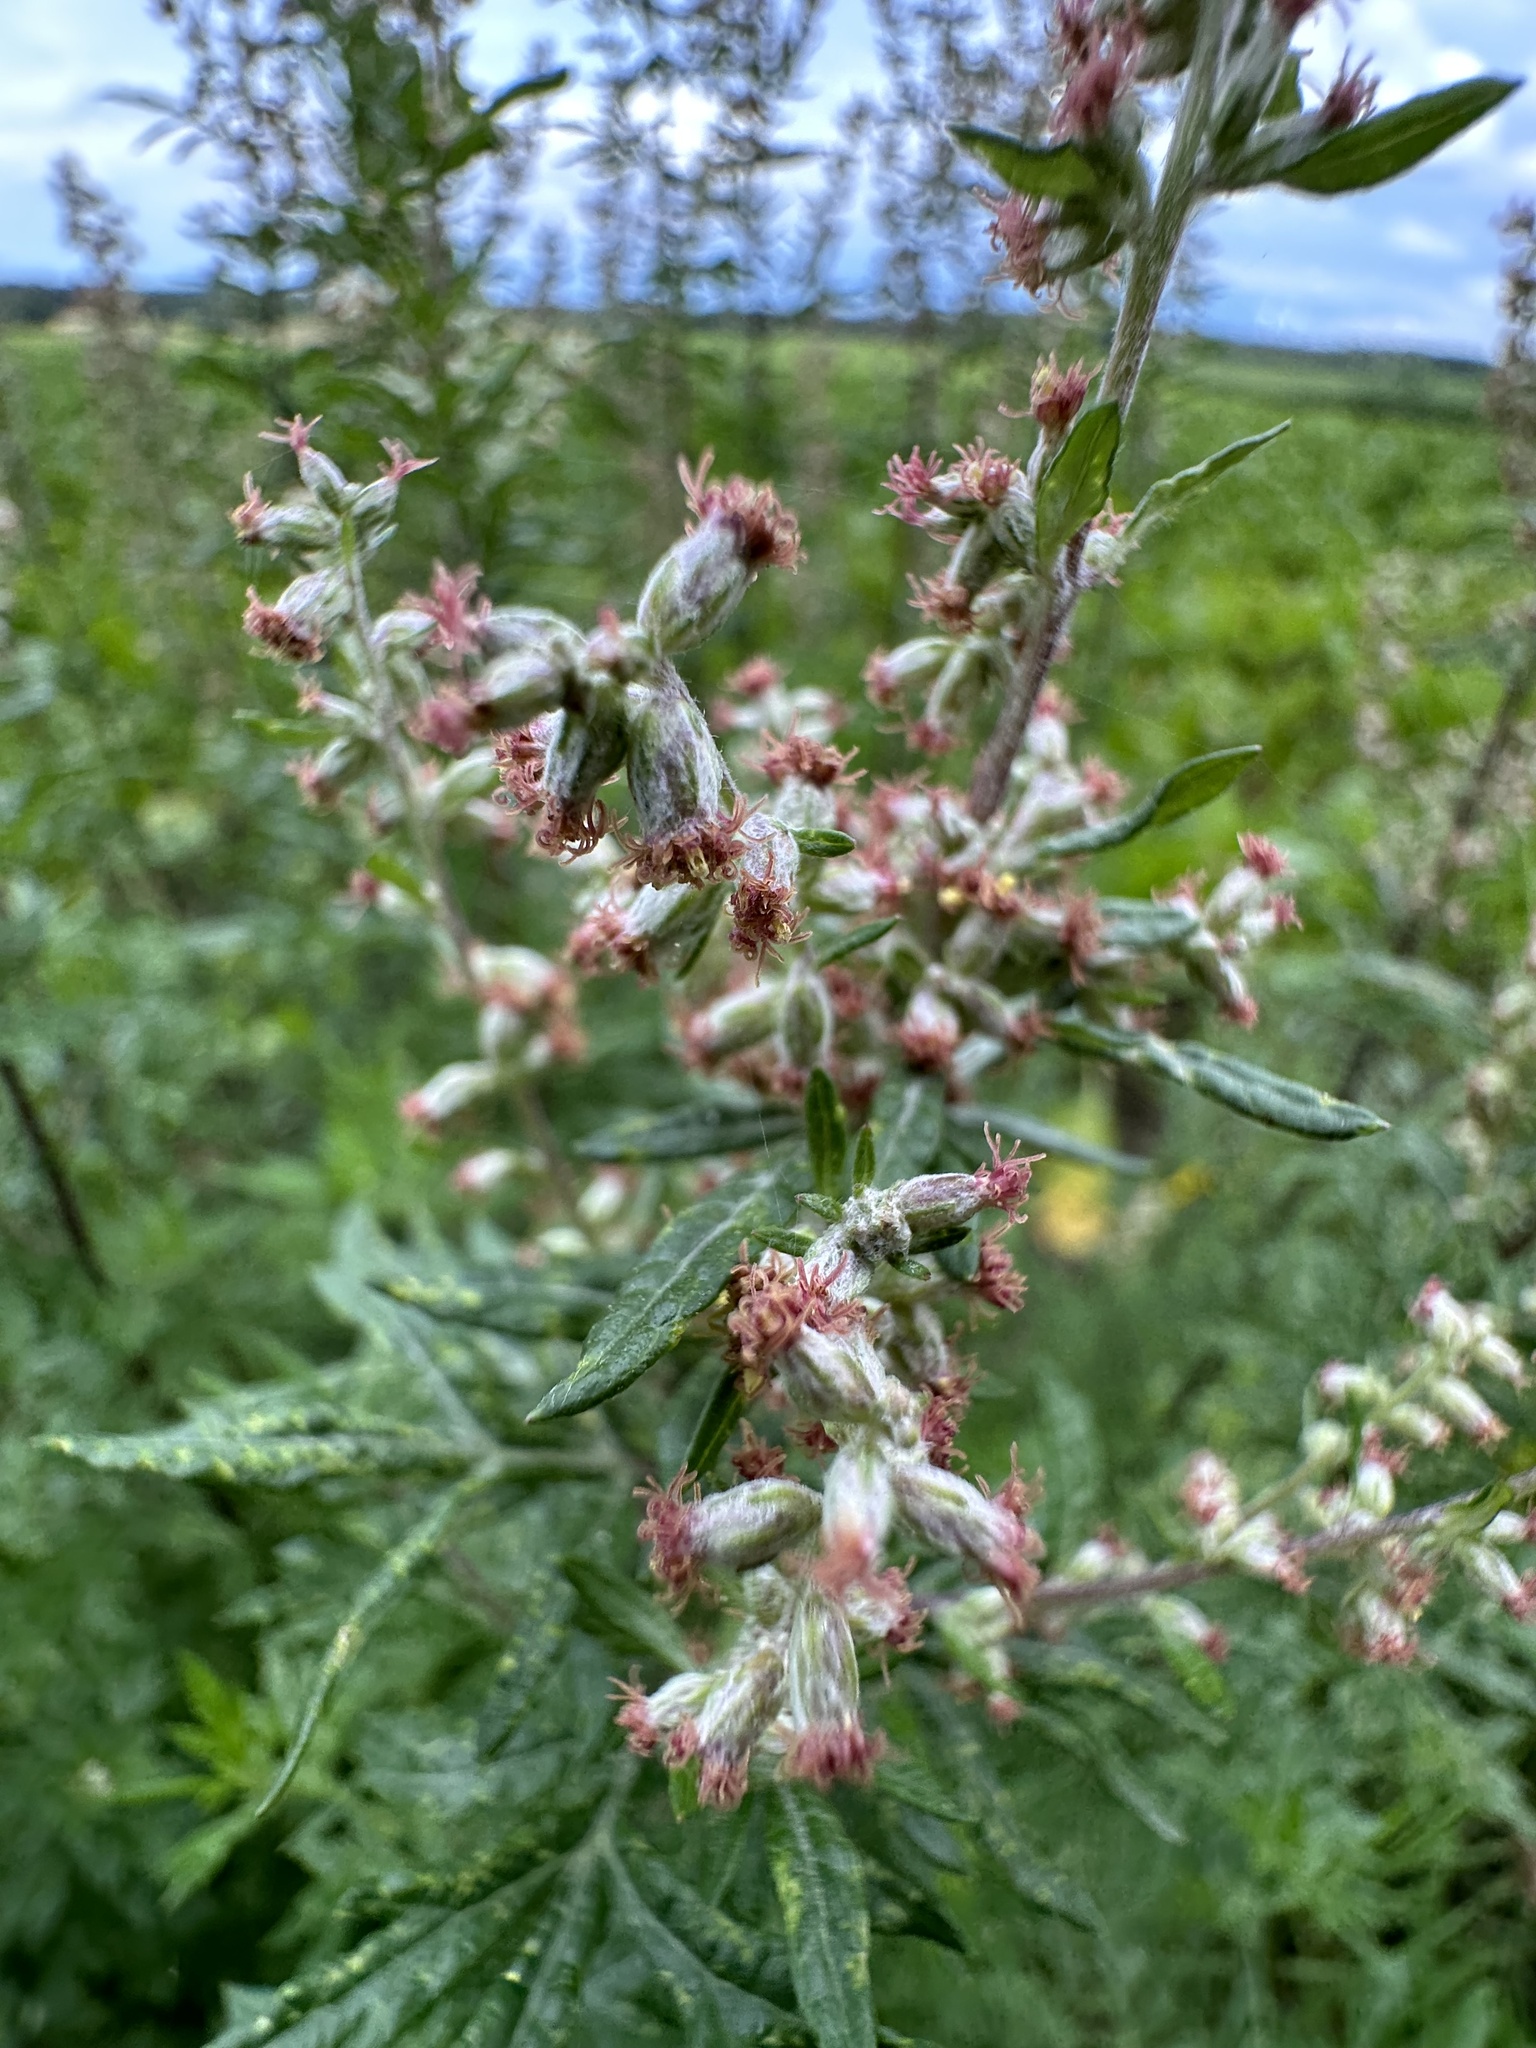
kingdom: Plantae
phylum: Tracheophyta
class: Magnoliopsida
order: Asterales
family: Asteraceae
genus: Artemisia
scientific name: Artemisia vulgaris
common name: Mugwort
